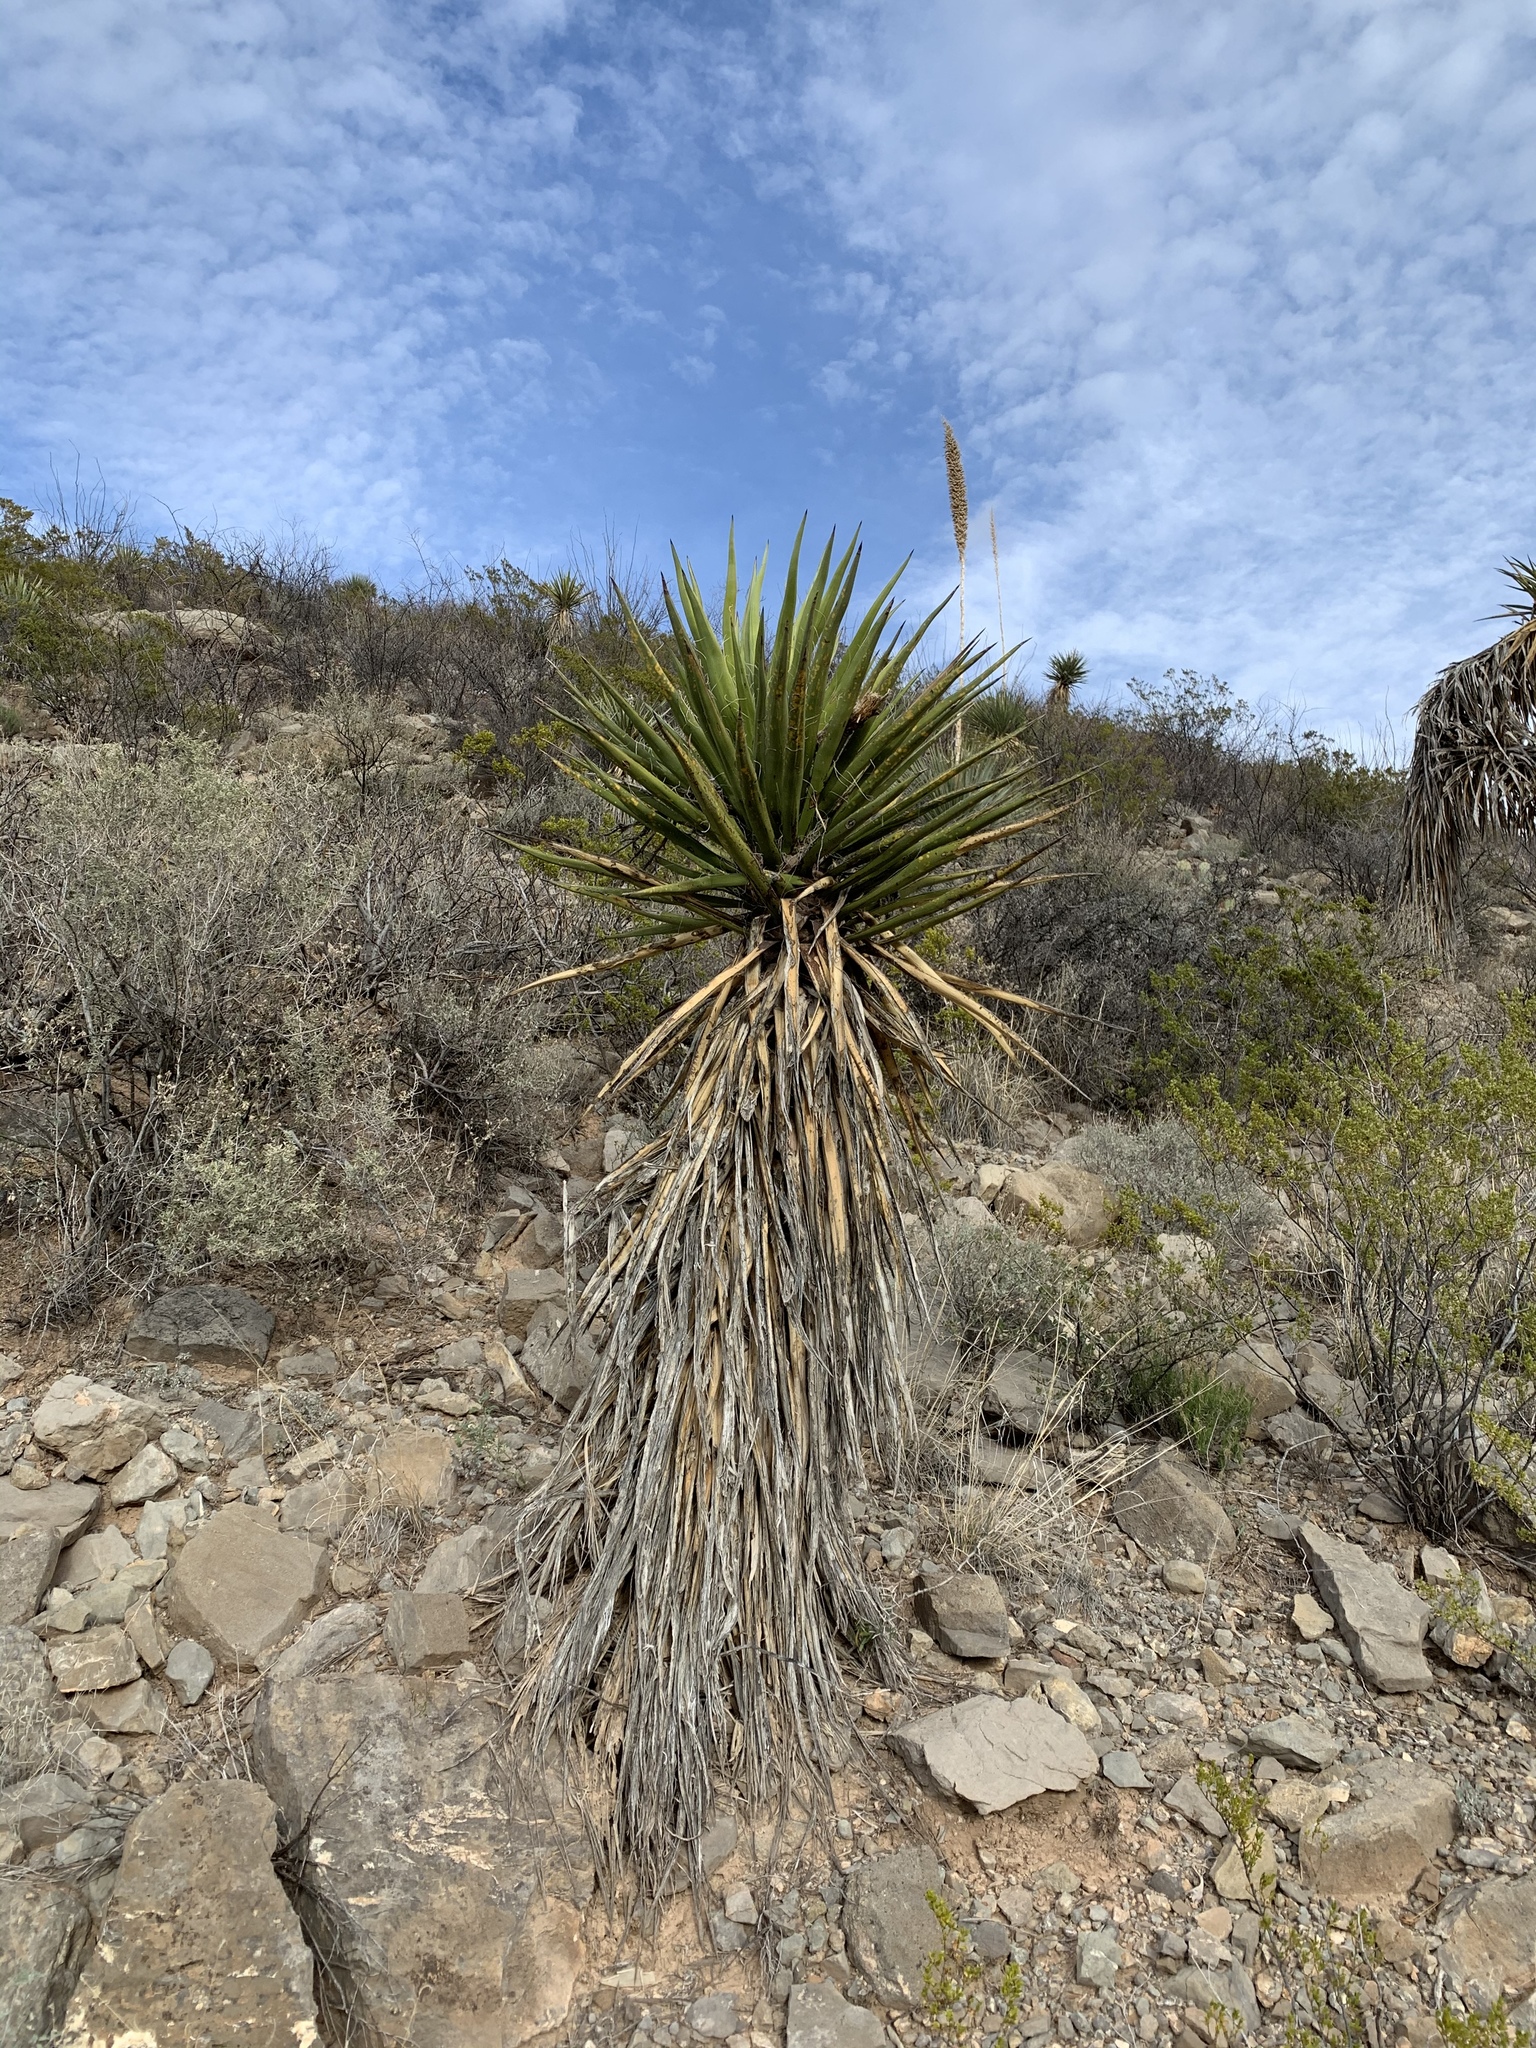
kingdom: Plantae
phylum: Tracheophyta
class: Liliopsida
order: Asparagales
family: Asparagaceae
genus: Yucca
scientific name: Yucca treculiana
